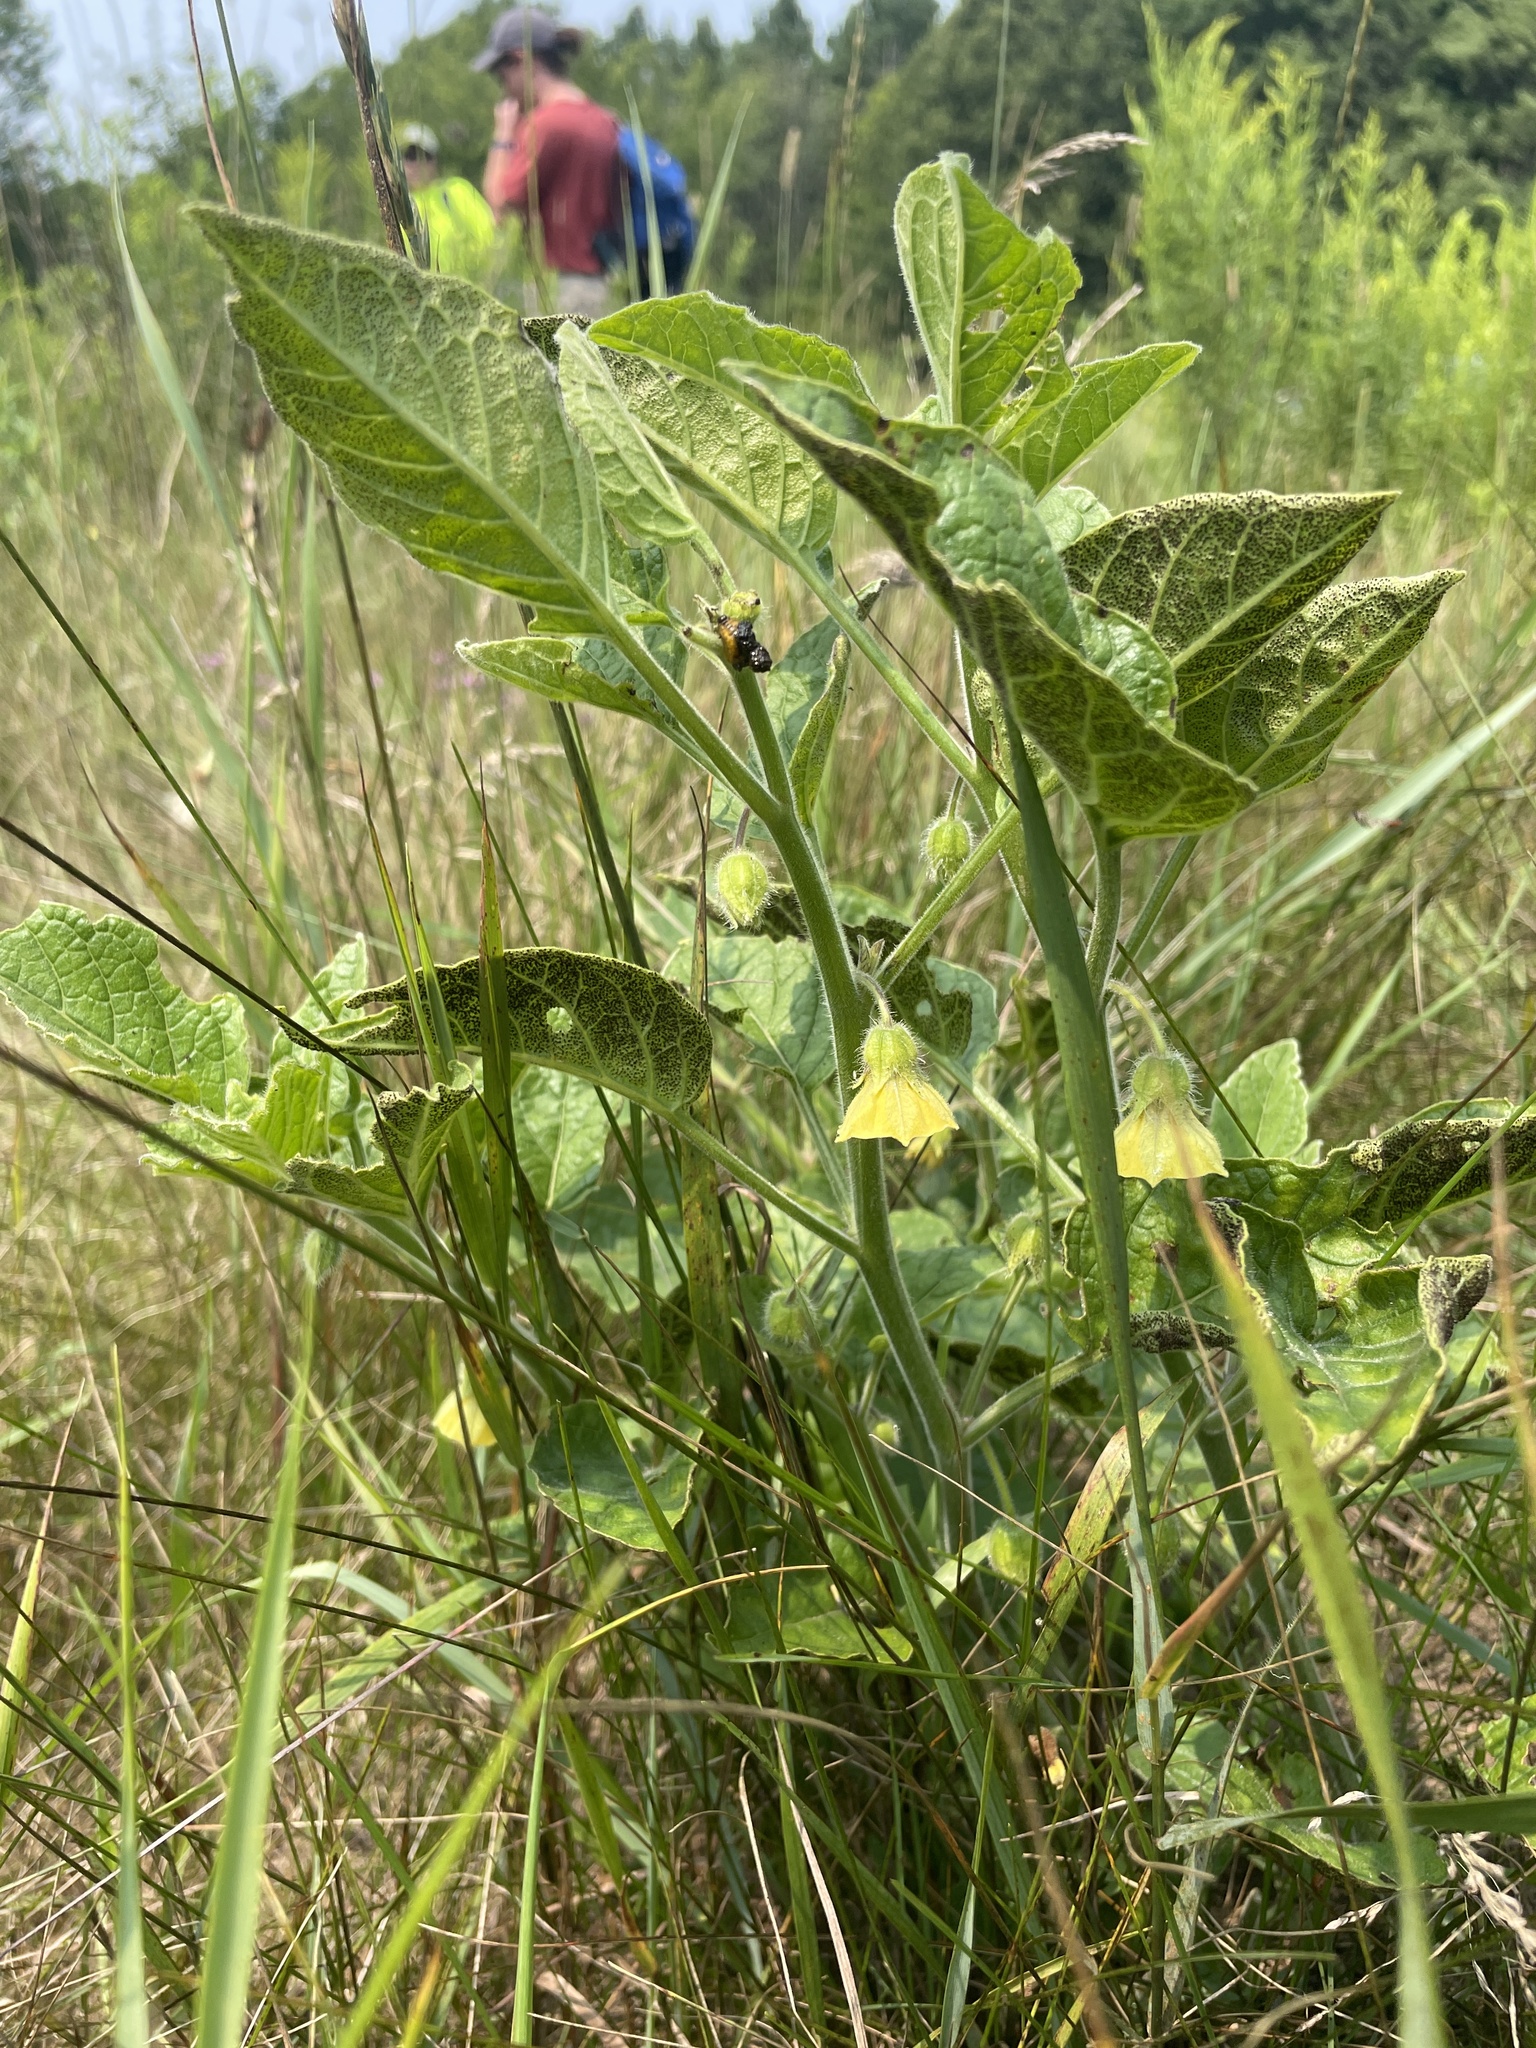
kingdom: Plantae
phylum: Tracheophyta
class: Magnoliopsida
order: Solanales
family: Solanaceae
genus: Physalis
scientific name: Physalis heterophylla
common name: Clammy ground-cherry
